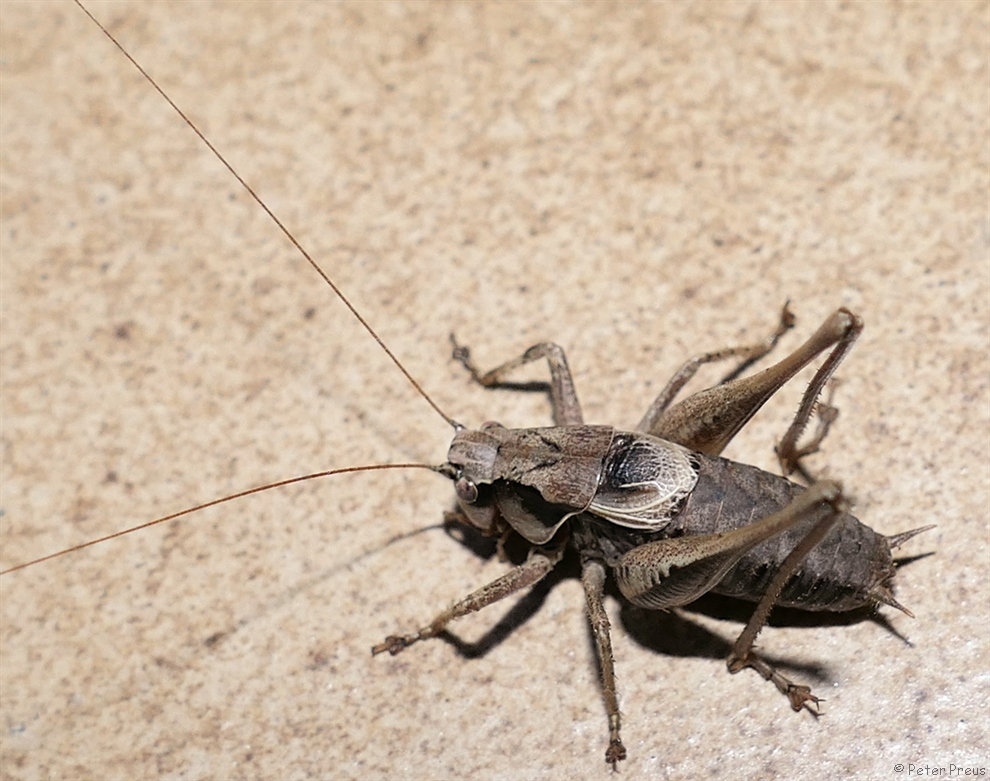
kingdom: Animalia
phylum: Arthropoda
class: Insecta
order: Orthoptera
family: Tettigoniidae
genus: Pholidoptera
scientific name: Pholidoptera griseoaptera
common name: Dark bush-cricket
